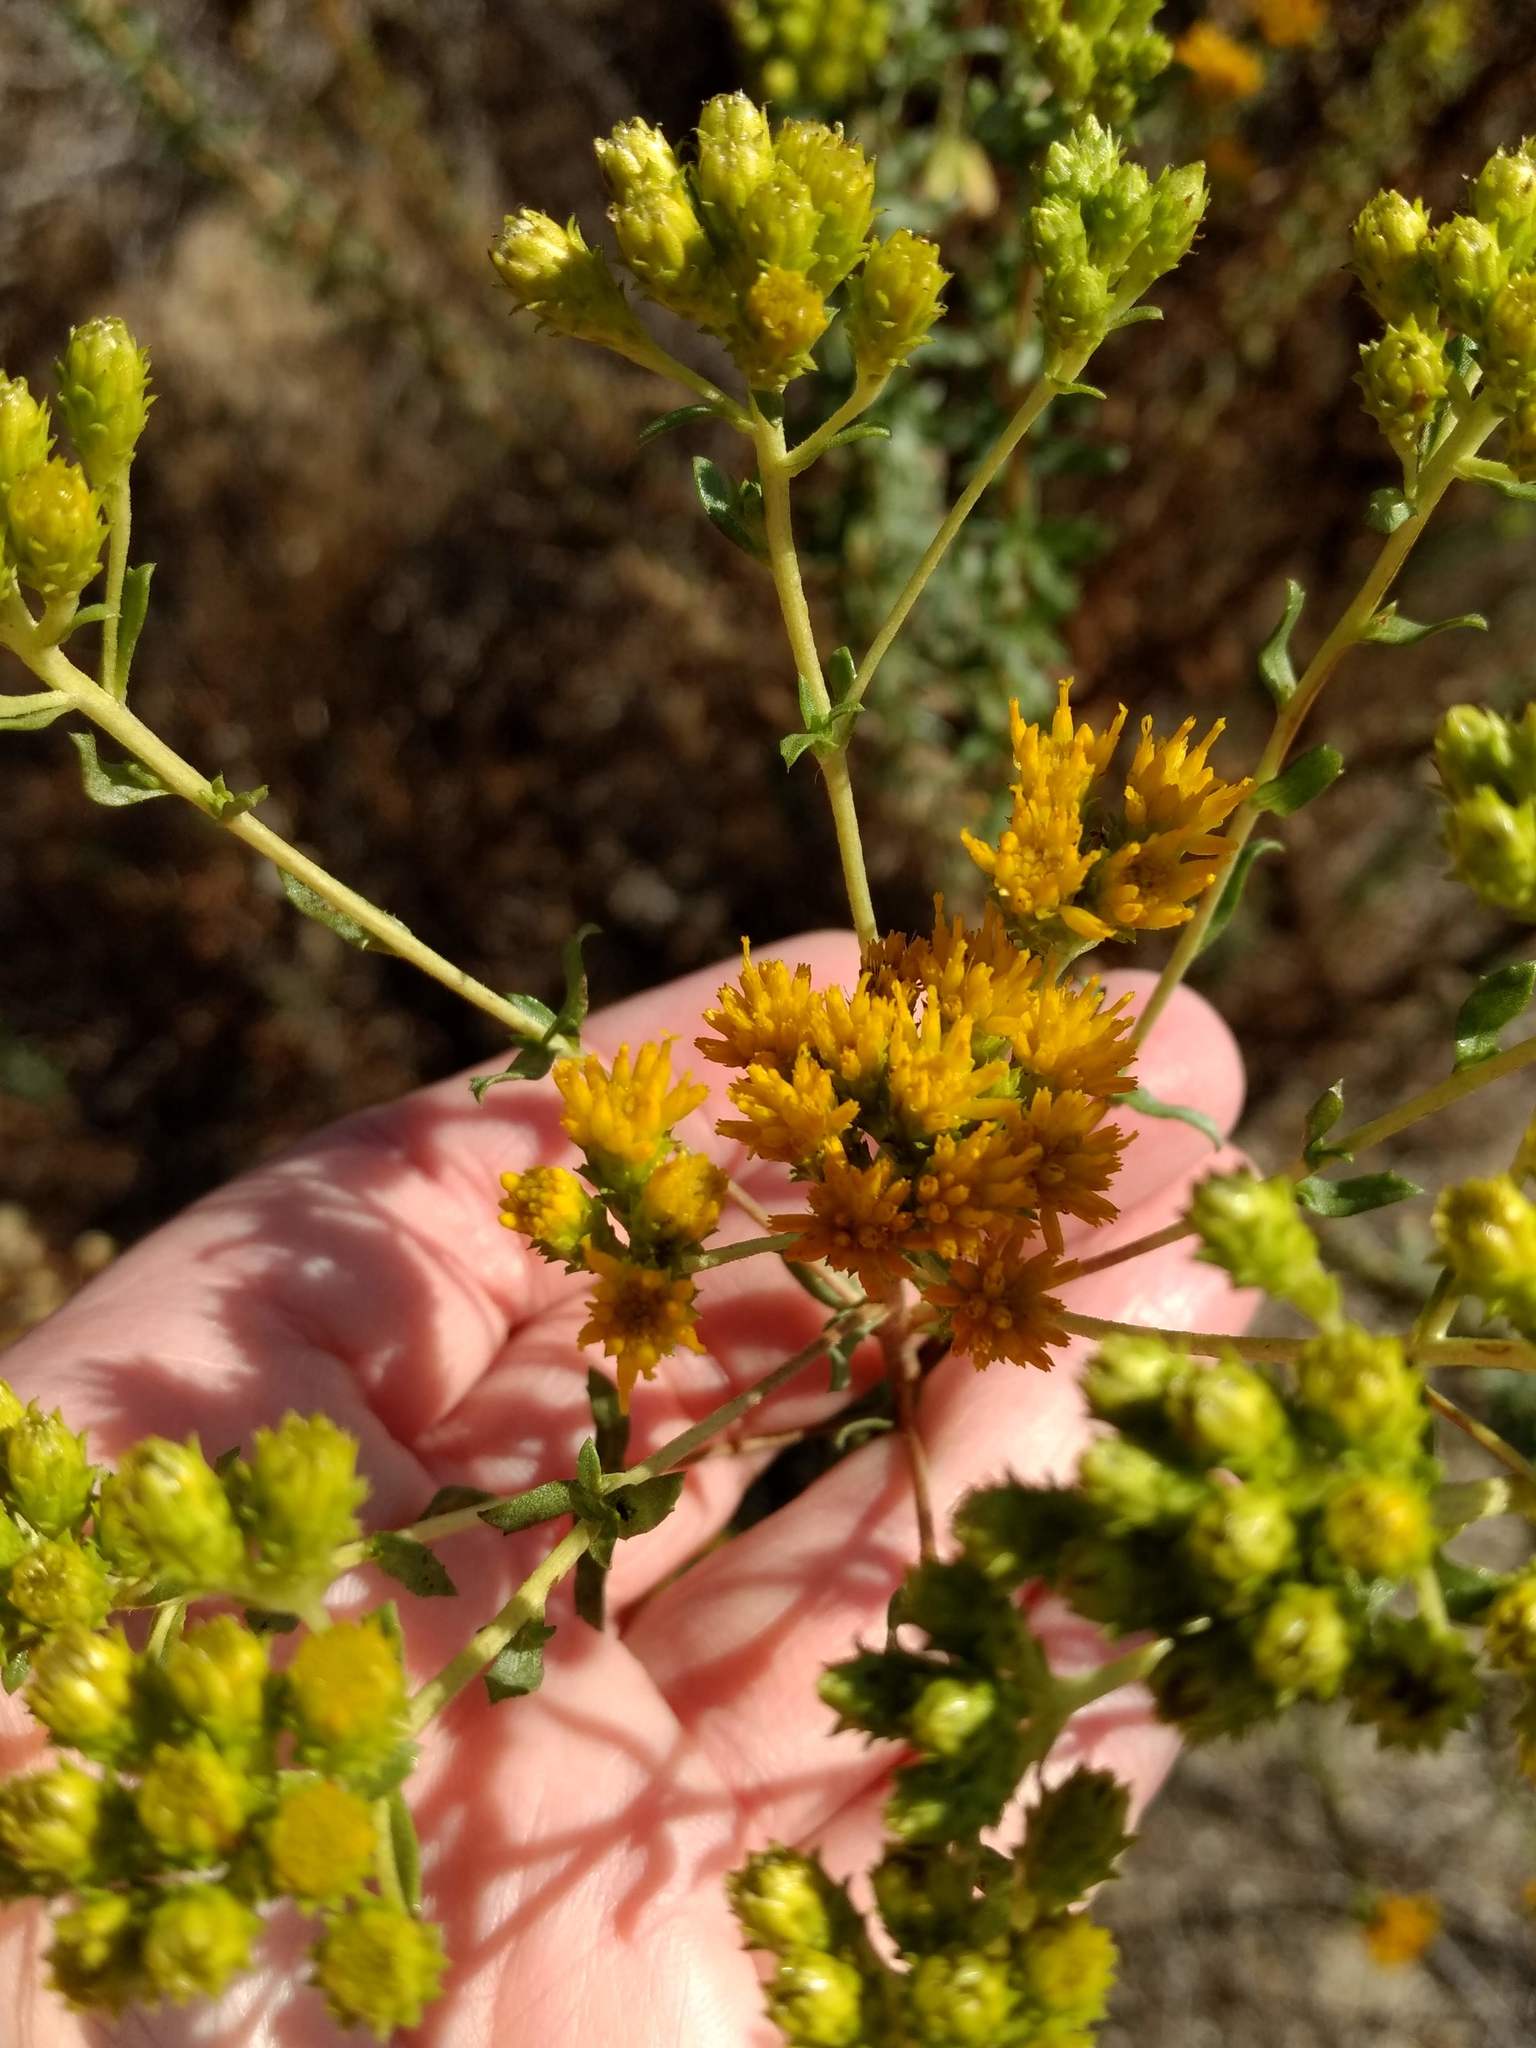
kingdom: Plantae
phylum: Tracheophyta
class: Magnoliopsida
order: Asterales
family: Asteraceae
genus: Isocoma
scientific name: Isocoma menziesii
